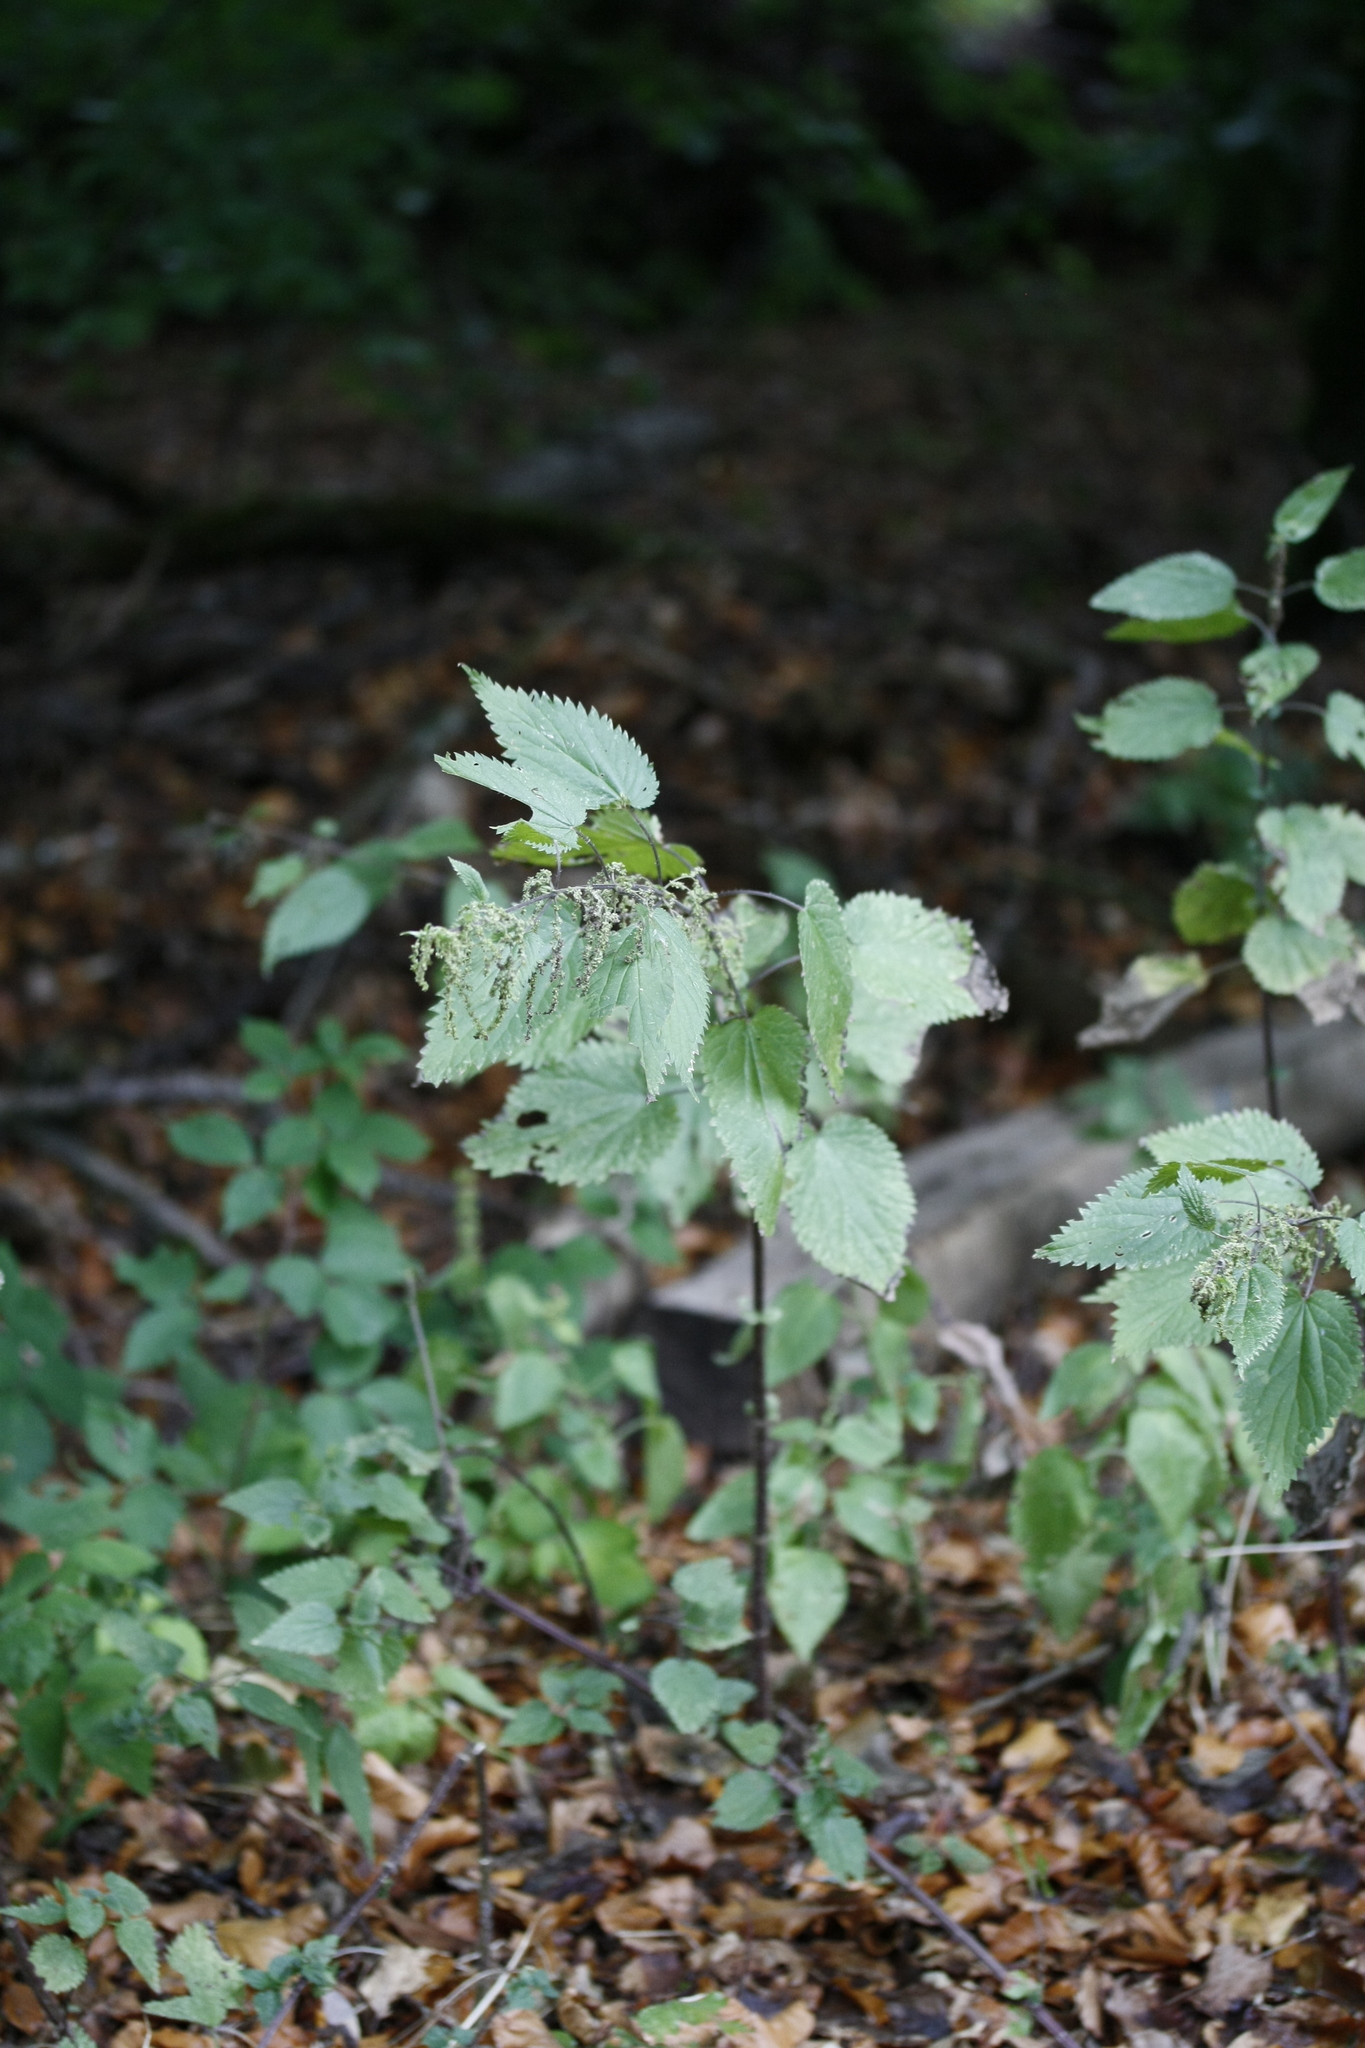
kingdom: Plantae
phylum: Tracheophyta
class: Magnoliopsida
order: Rosales
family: Urticaceae
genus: Urtica
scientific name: Urtica dioica
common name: Common nettle
